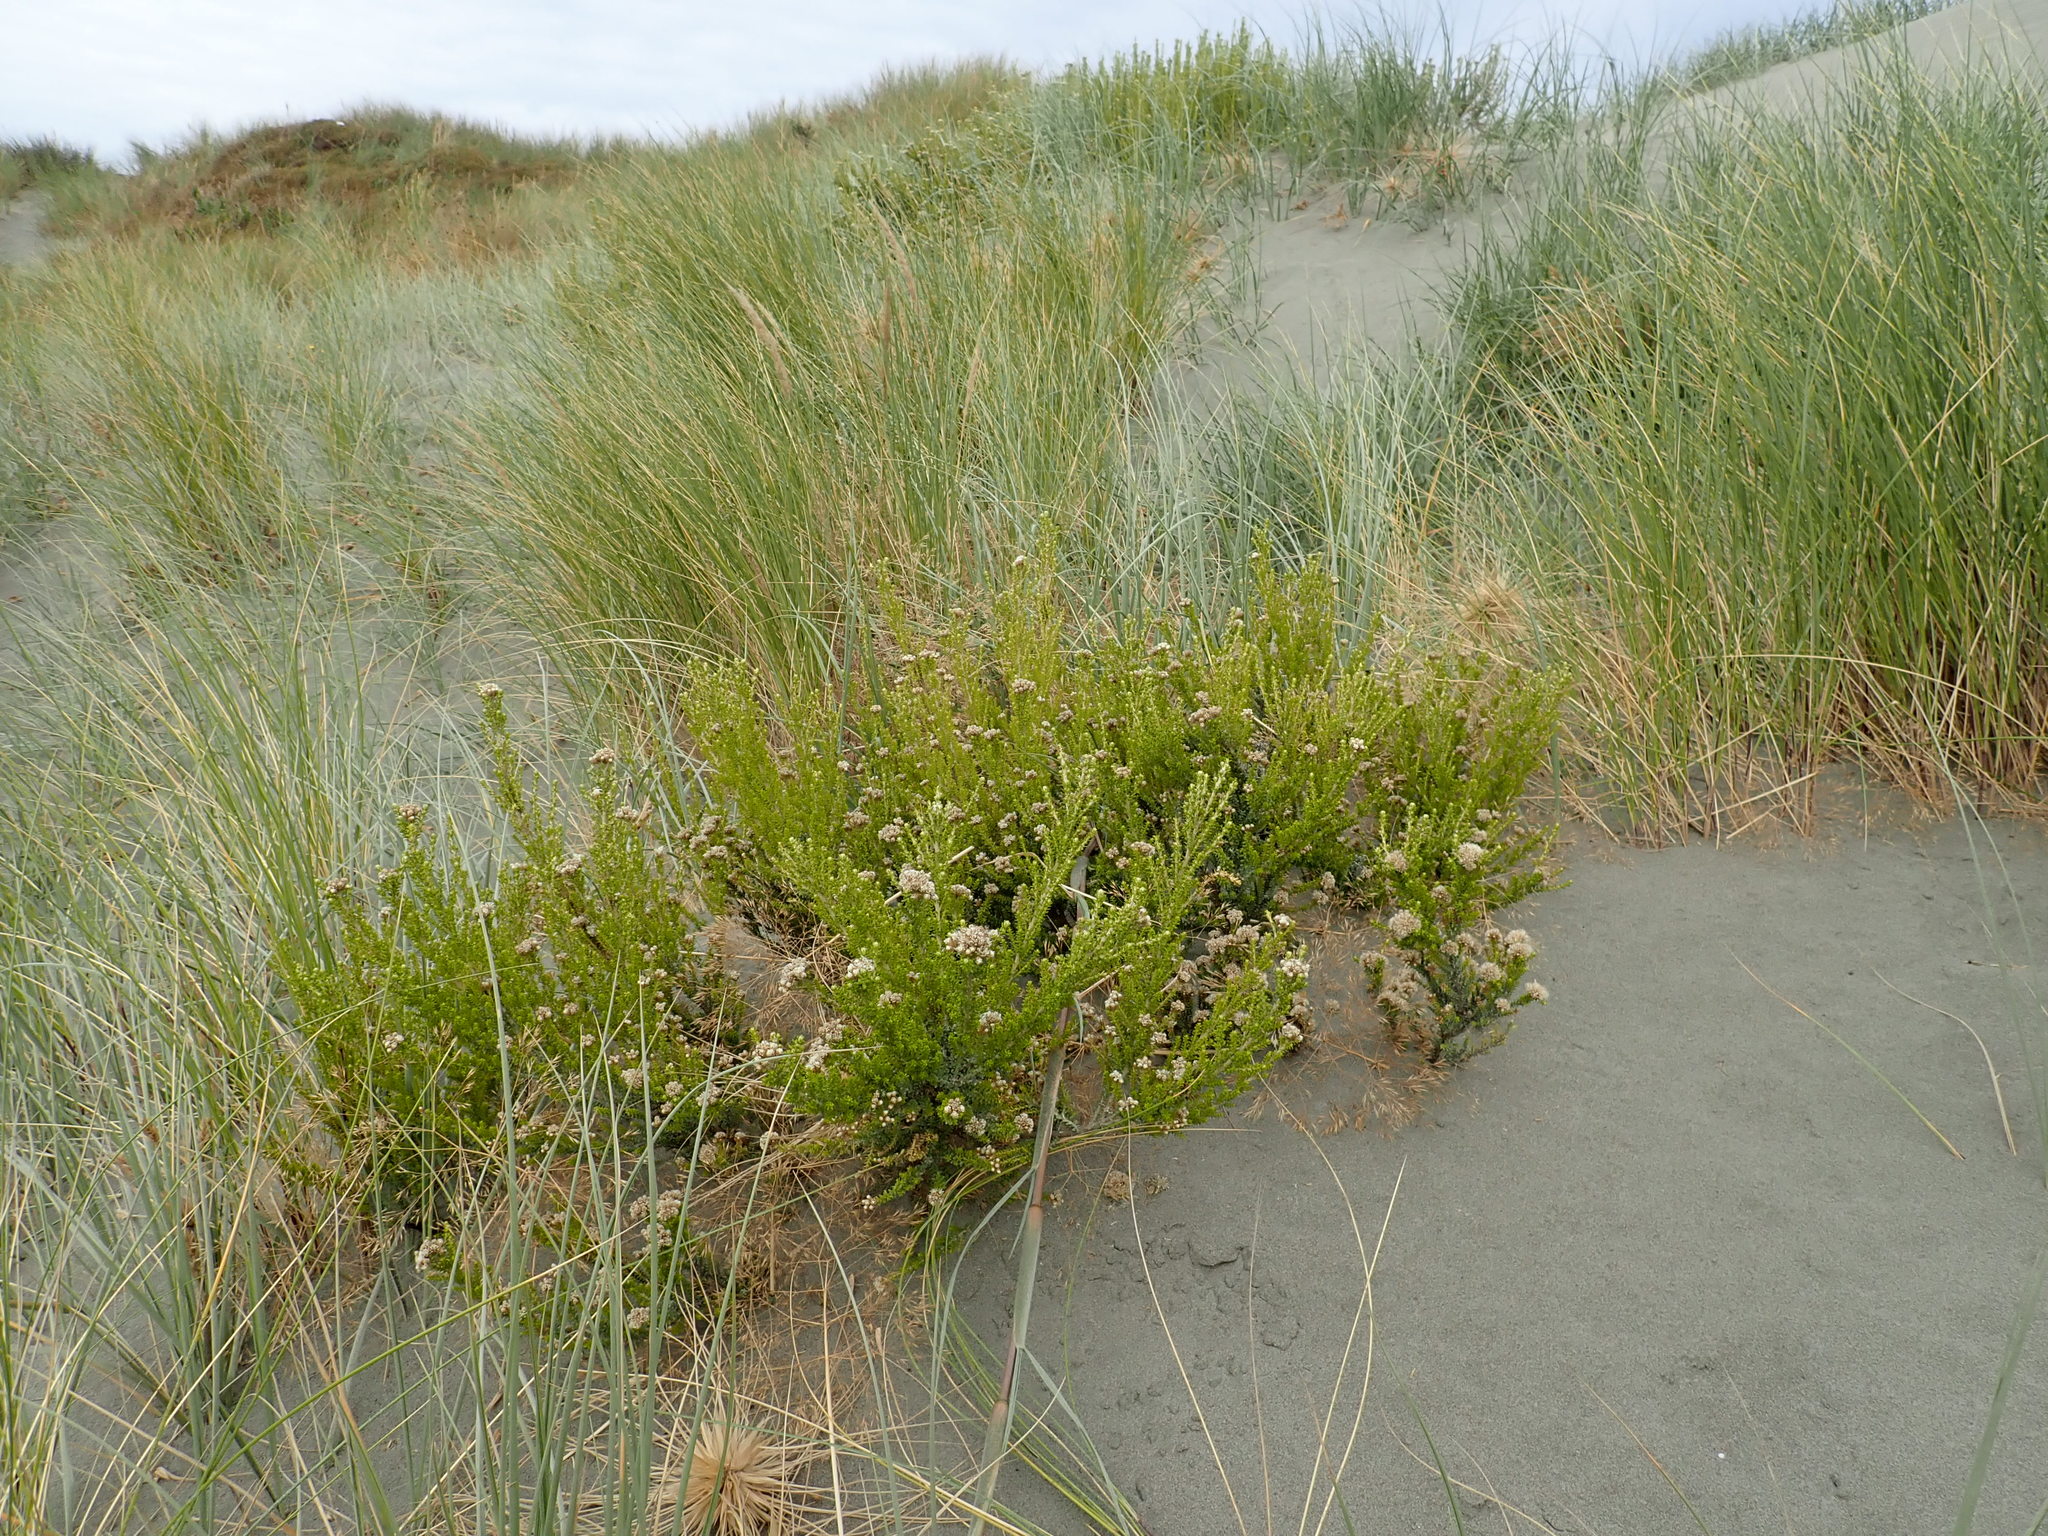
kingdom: Plantae
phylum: Tracheophyta
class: Magnoliopsida
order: Asterales
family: Asteraceae
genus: Ozothamnus
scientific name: Ozothamnus leptophyllus
